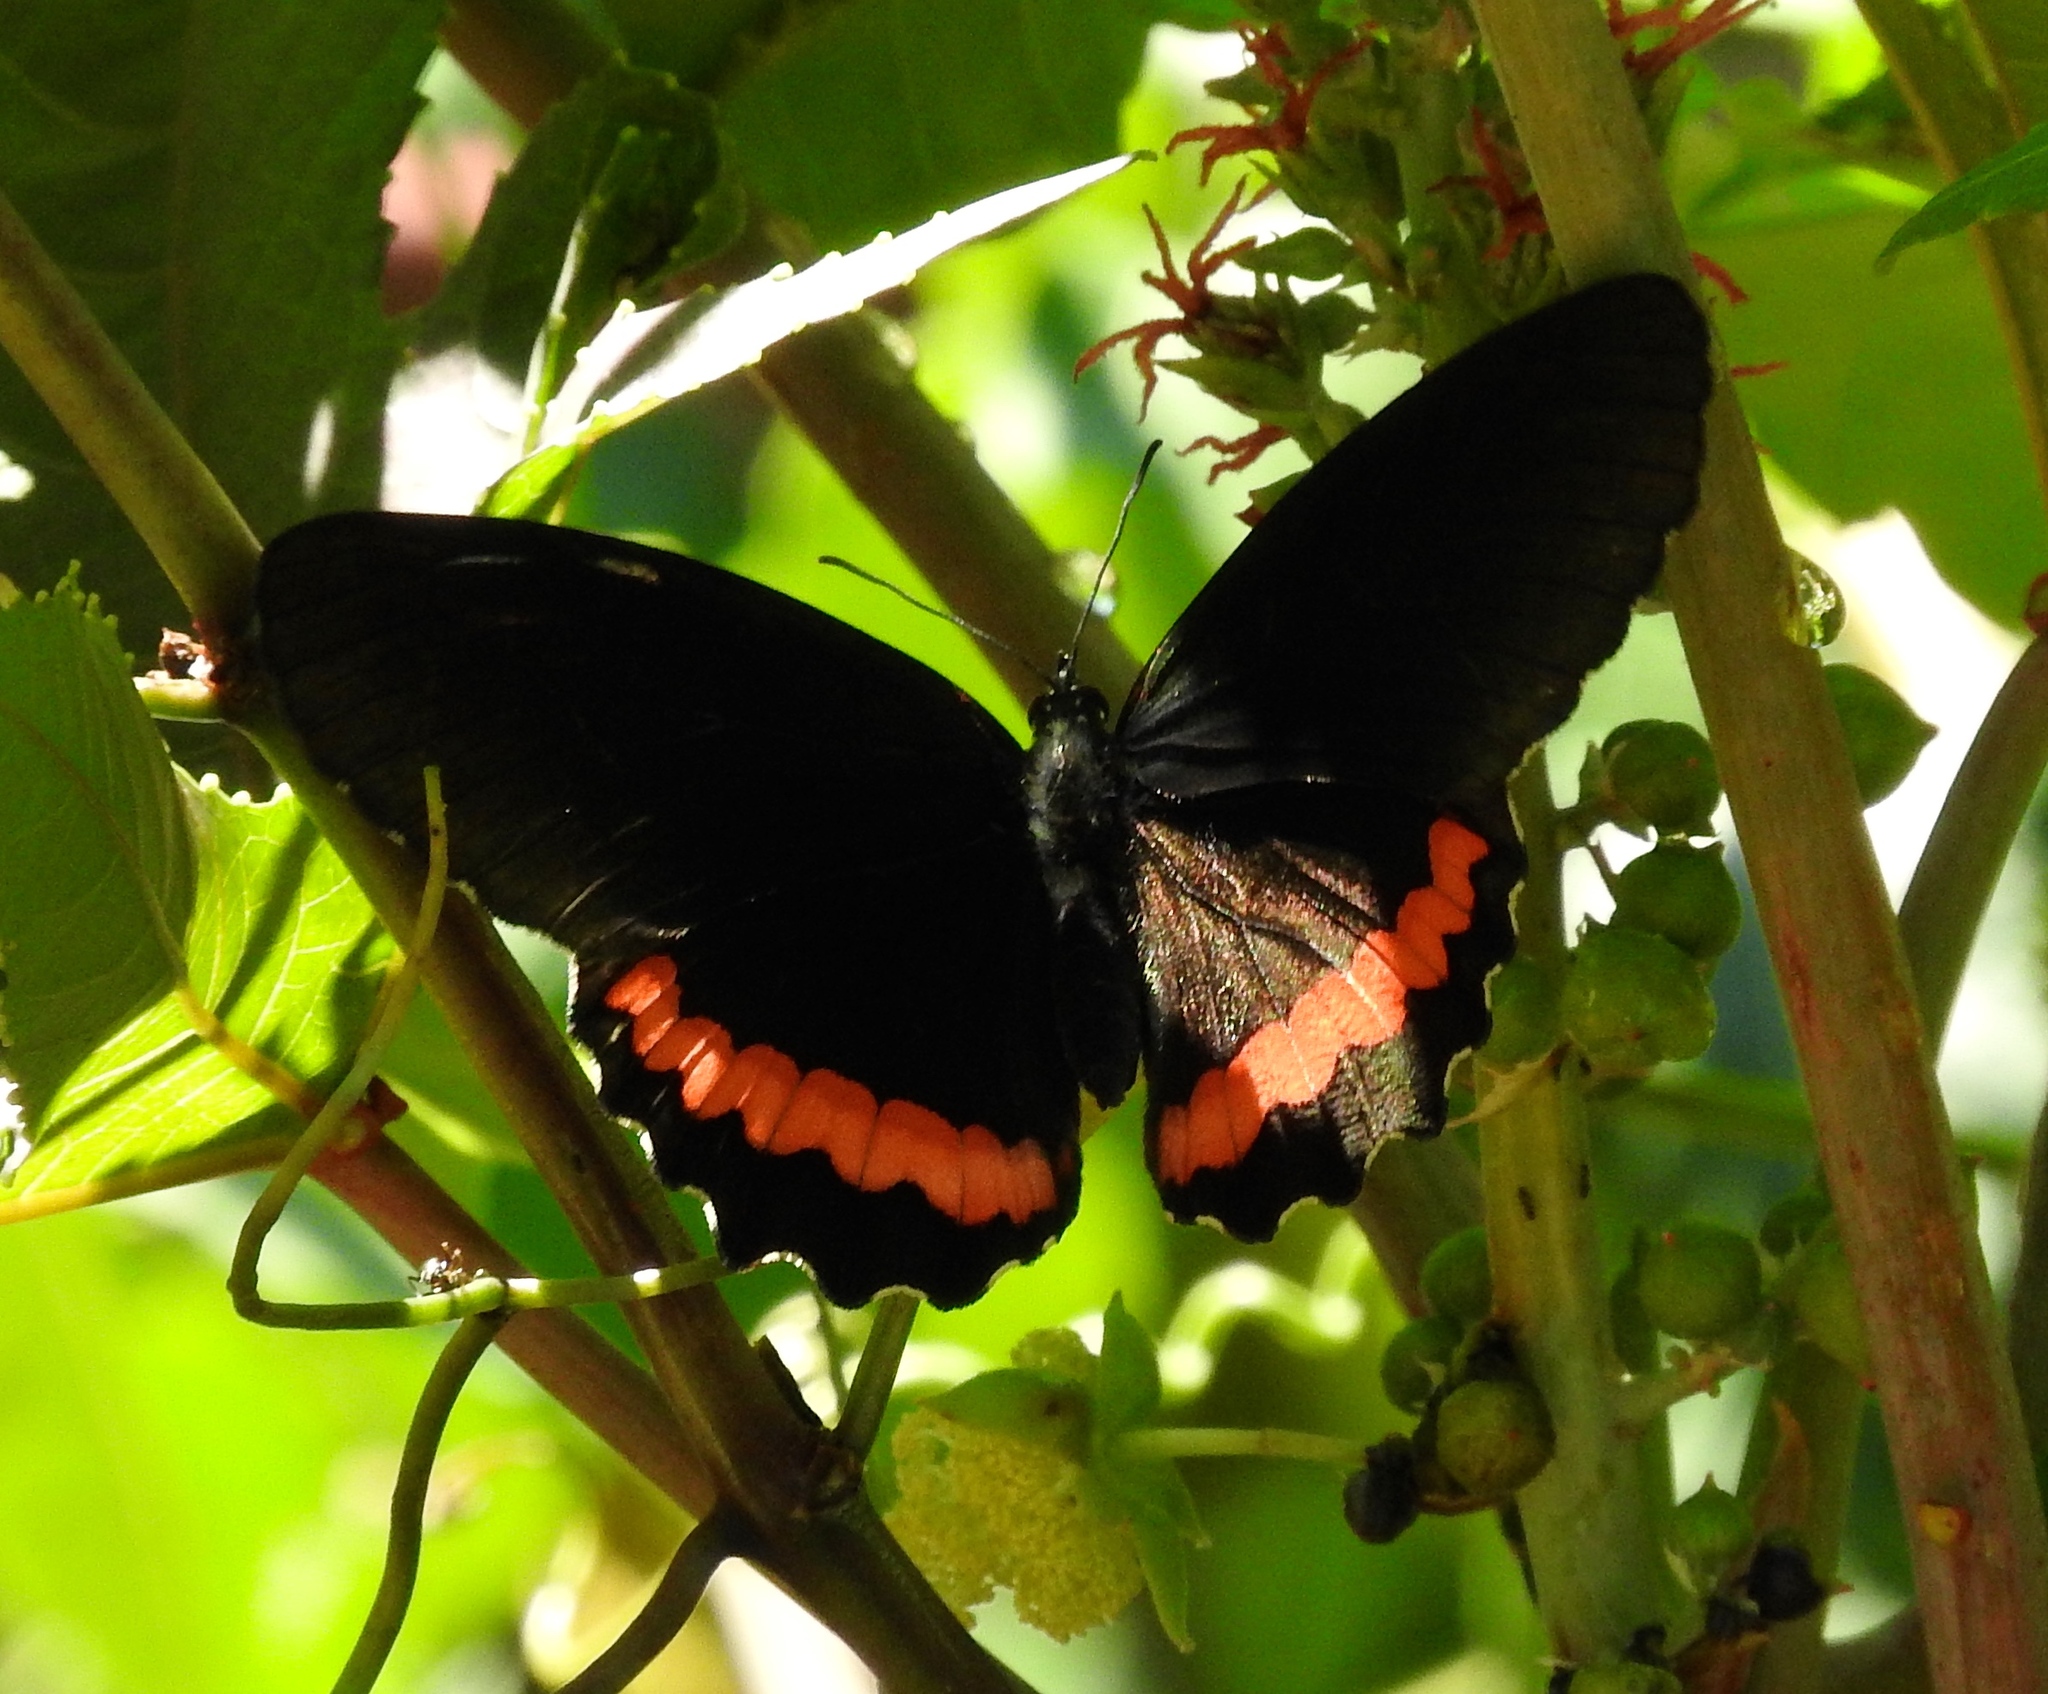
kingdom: Animalia
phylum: Arthropoda
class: Insecta
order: Lepidoptera
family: Nymphalidae
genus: Biblis
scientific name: Biblis aganisa
